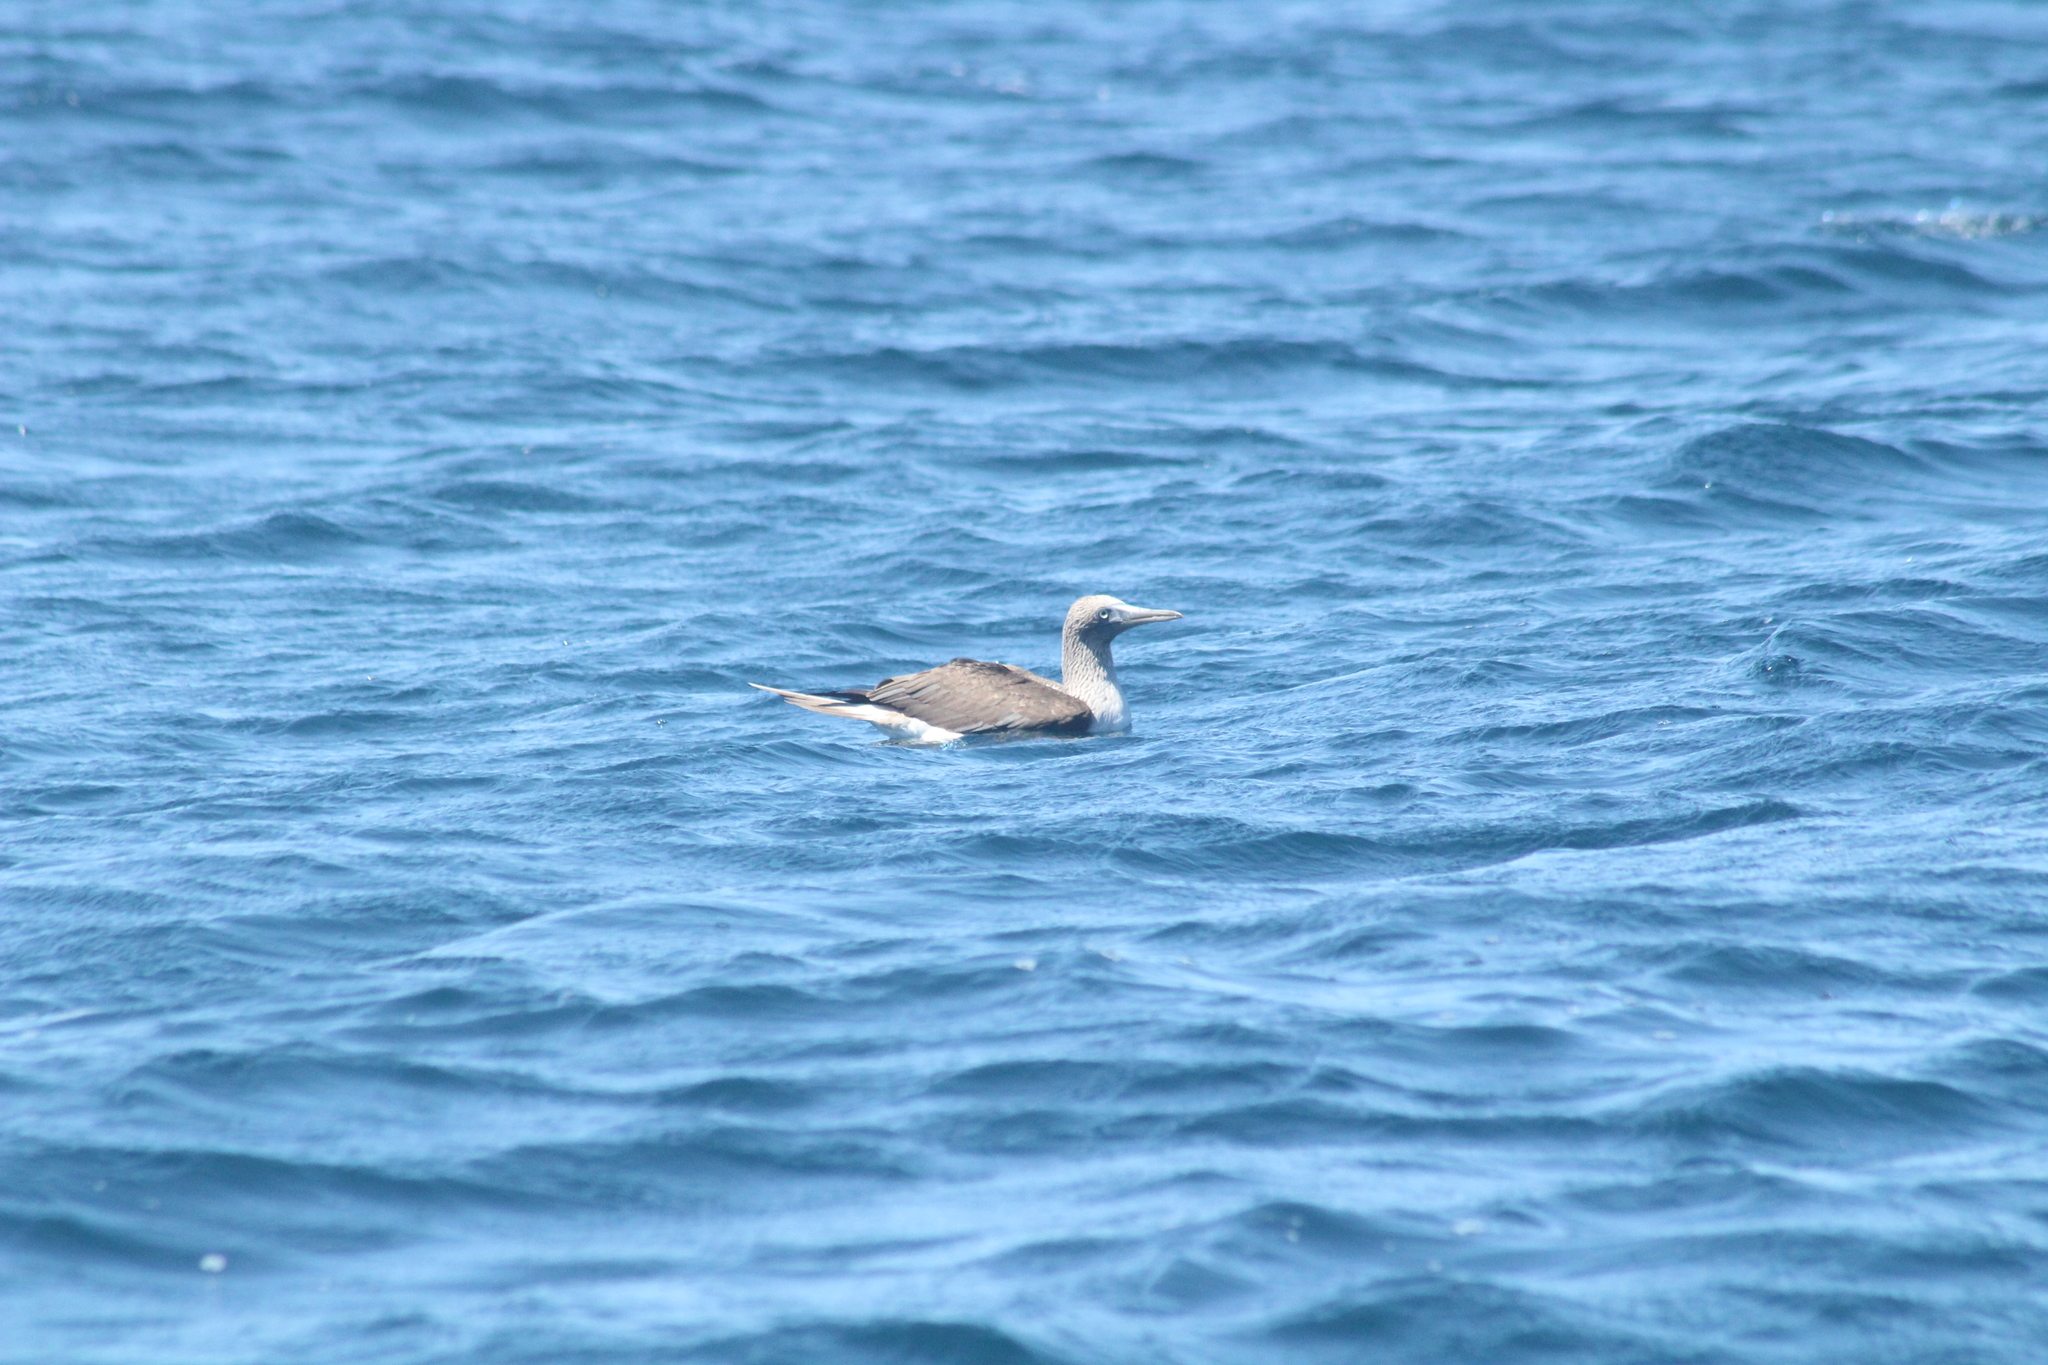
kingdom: Animalia
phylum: Chordata
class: Aves
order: Suliformes
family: Sulidae
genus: Sula
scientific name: Sula nebouxii
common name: Blue-footed booby
